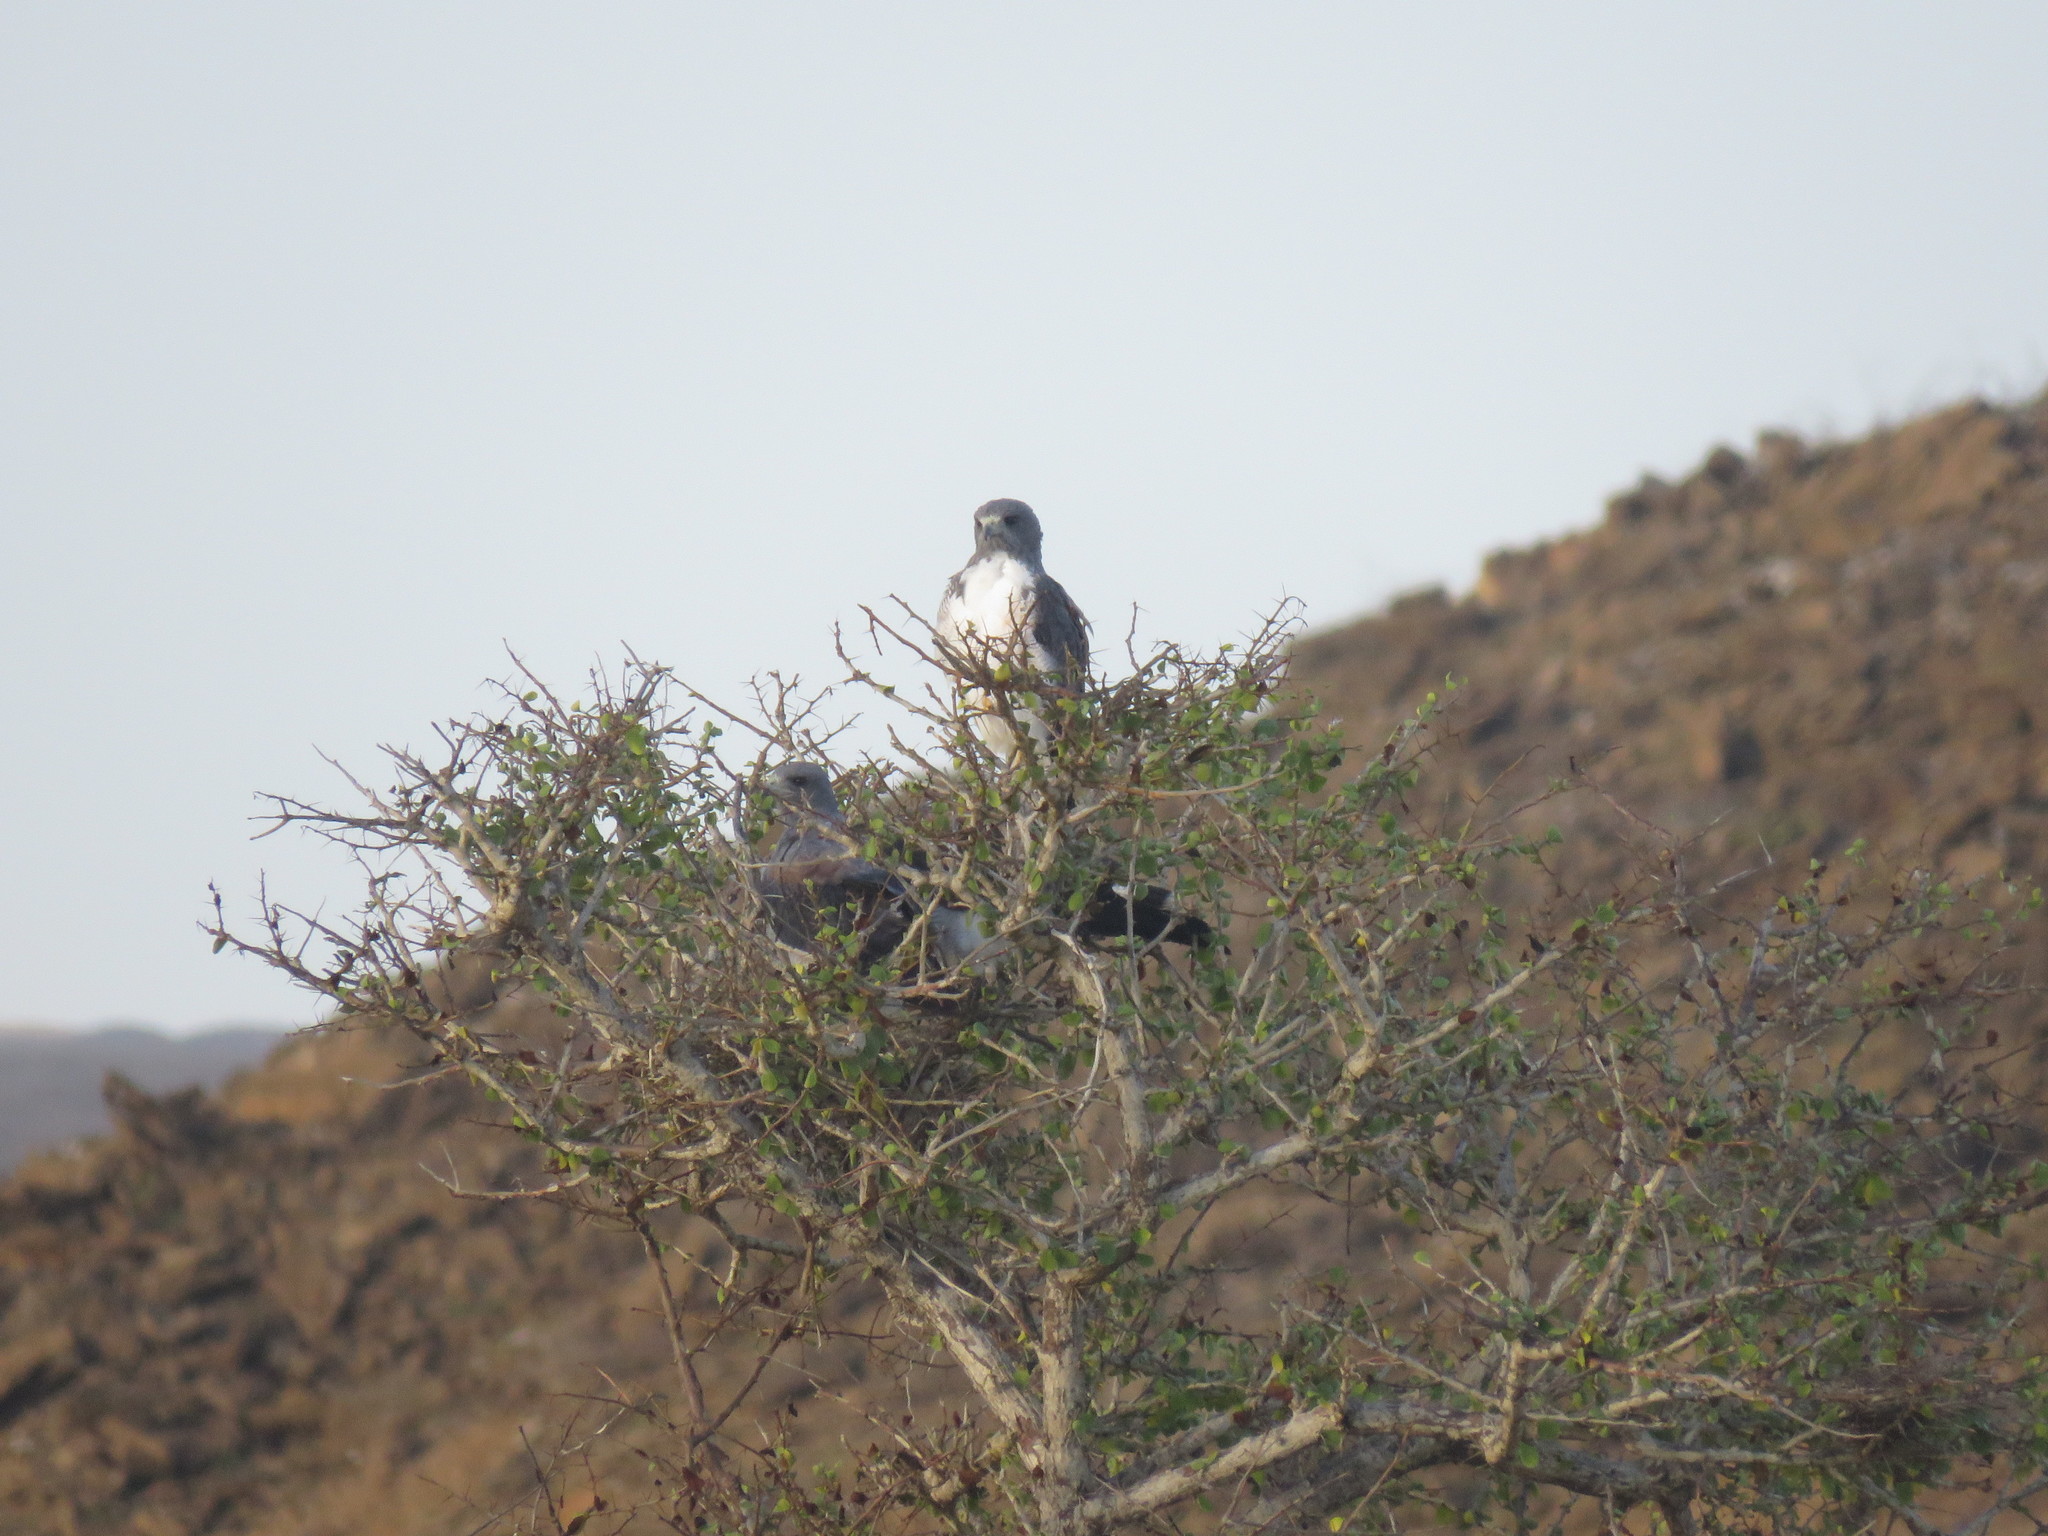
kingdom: Animalia
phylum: Chordata
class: Aves
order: Accipitriformes
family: Accipitridae
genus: Buteo
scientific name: Buteo albicaudatus
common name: White-tailed hawk
